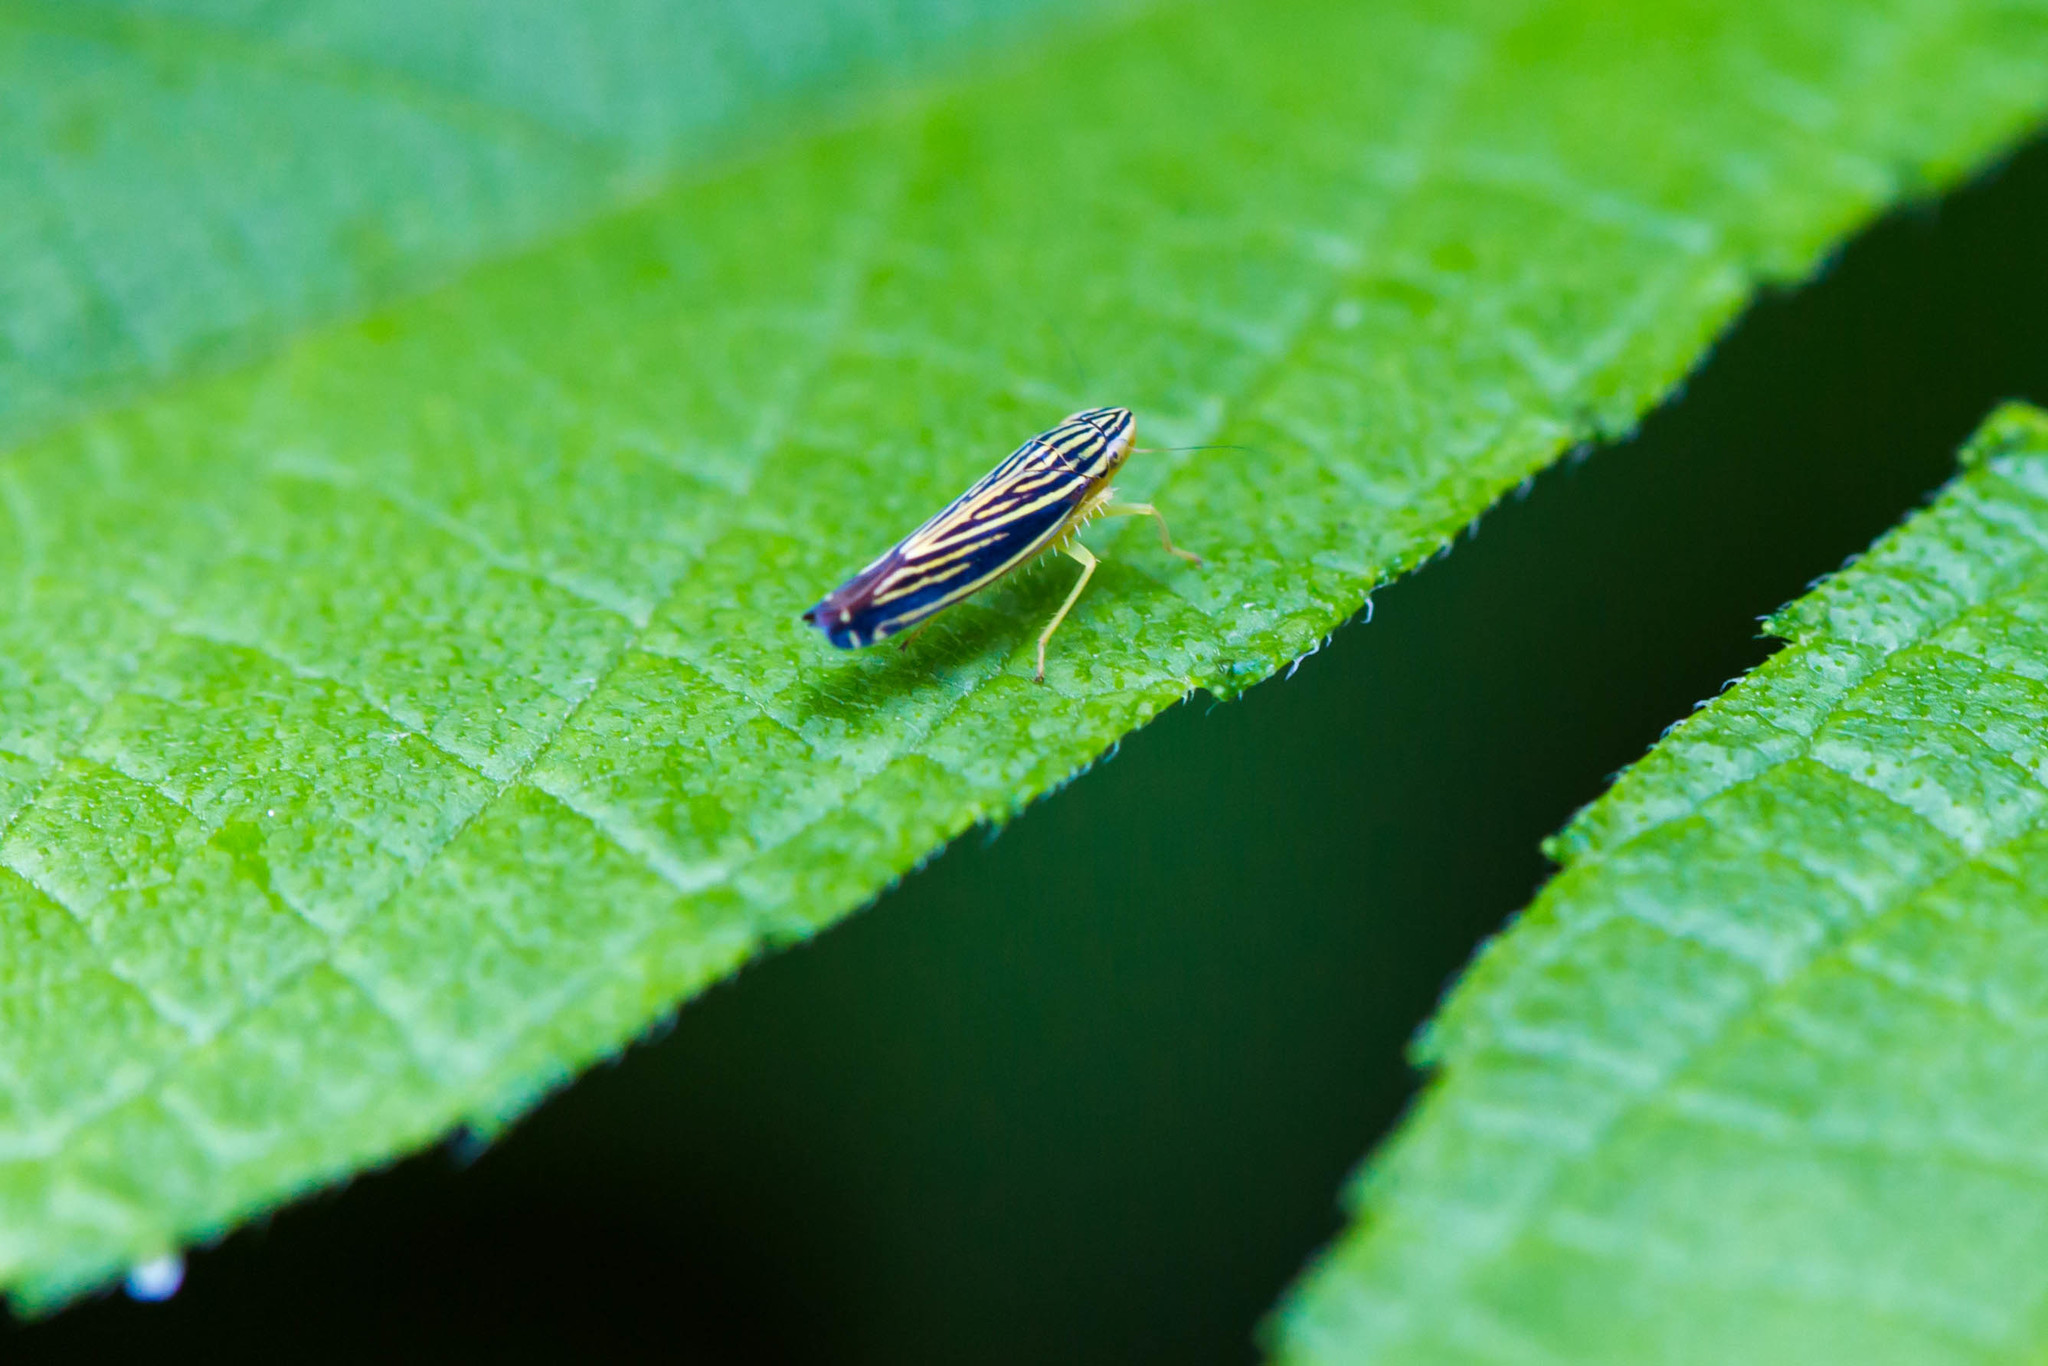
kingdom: Animalia
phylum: Arthropoda
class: Insecta
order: Hemiptera
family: Cicadellidae
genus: Sibovia
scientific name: Sibovia occatoria
